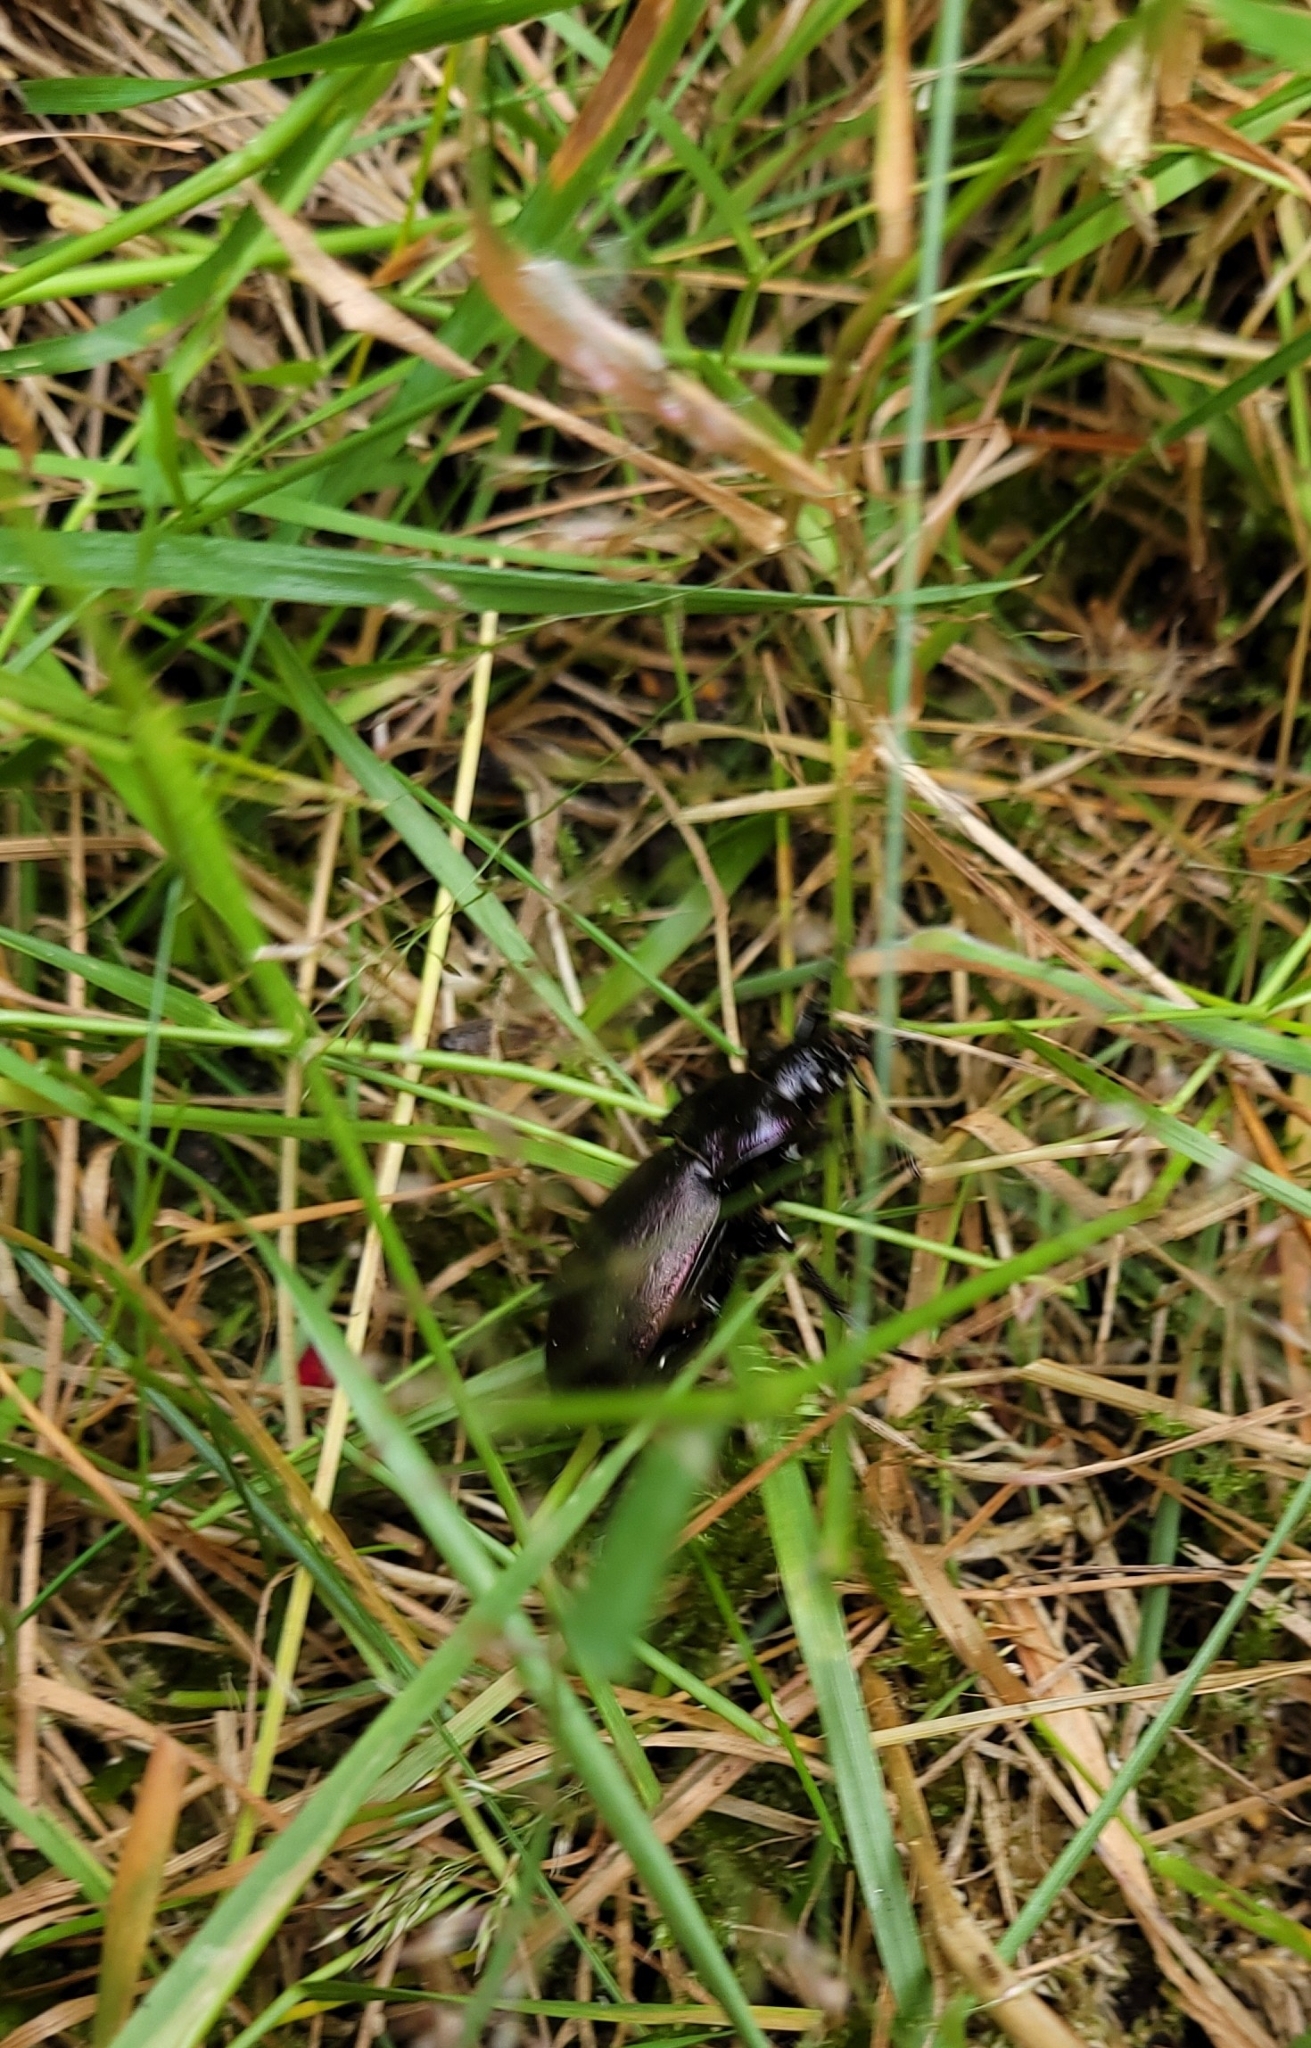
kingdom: Animalia
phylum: Arthropoda
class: Insecta
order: Coleoptera
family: Carabidae
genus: Carabus
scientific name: Carabus nemoralis
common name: European ground beetle
